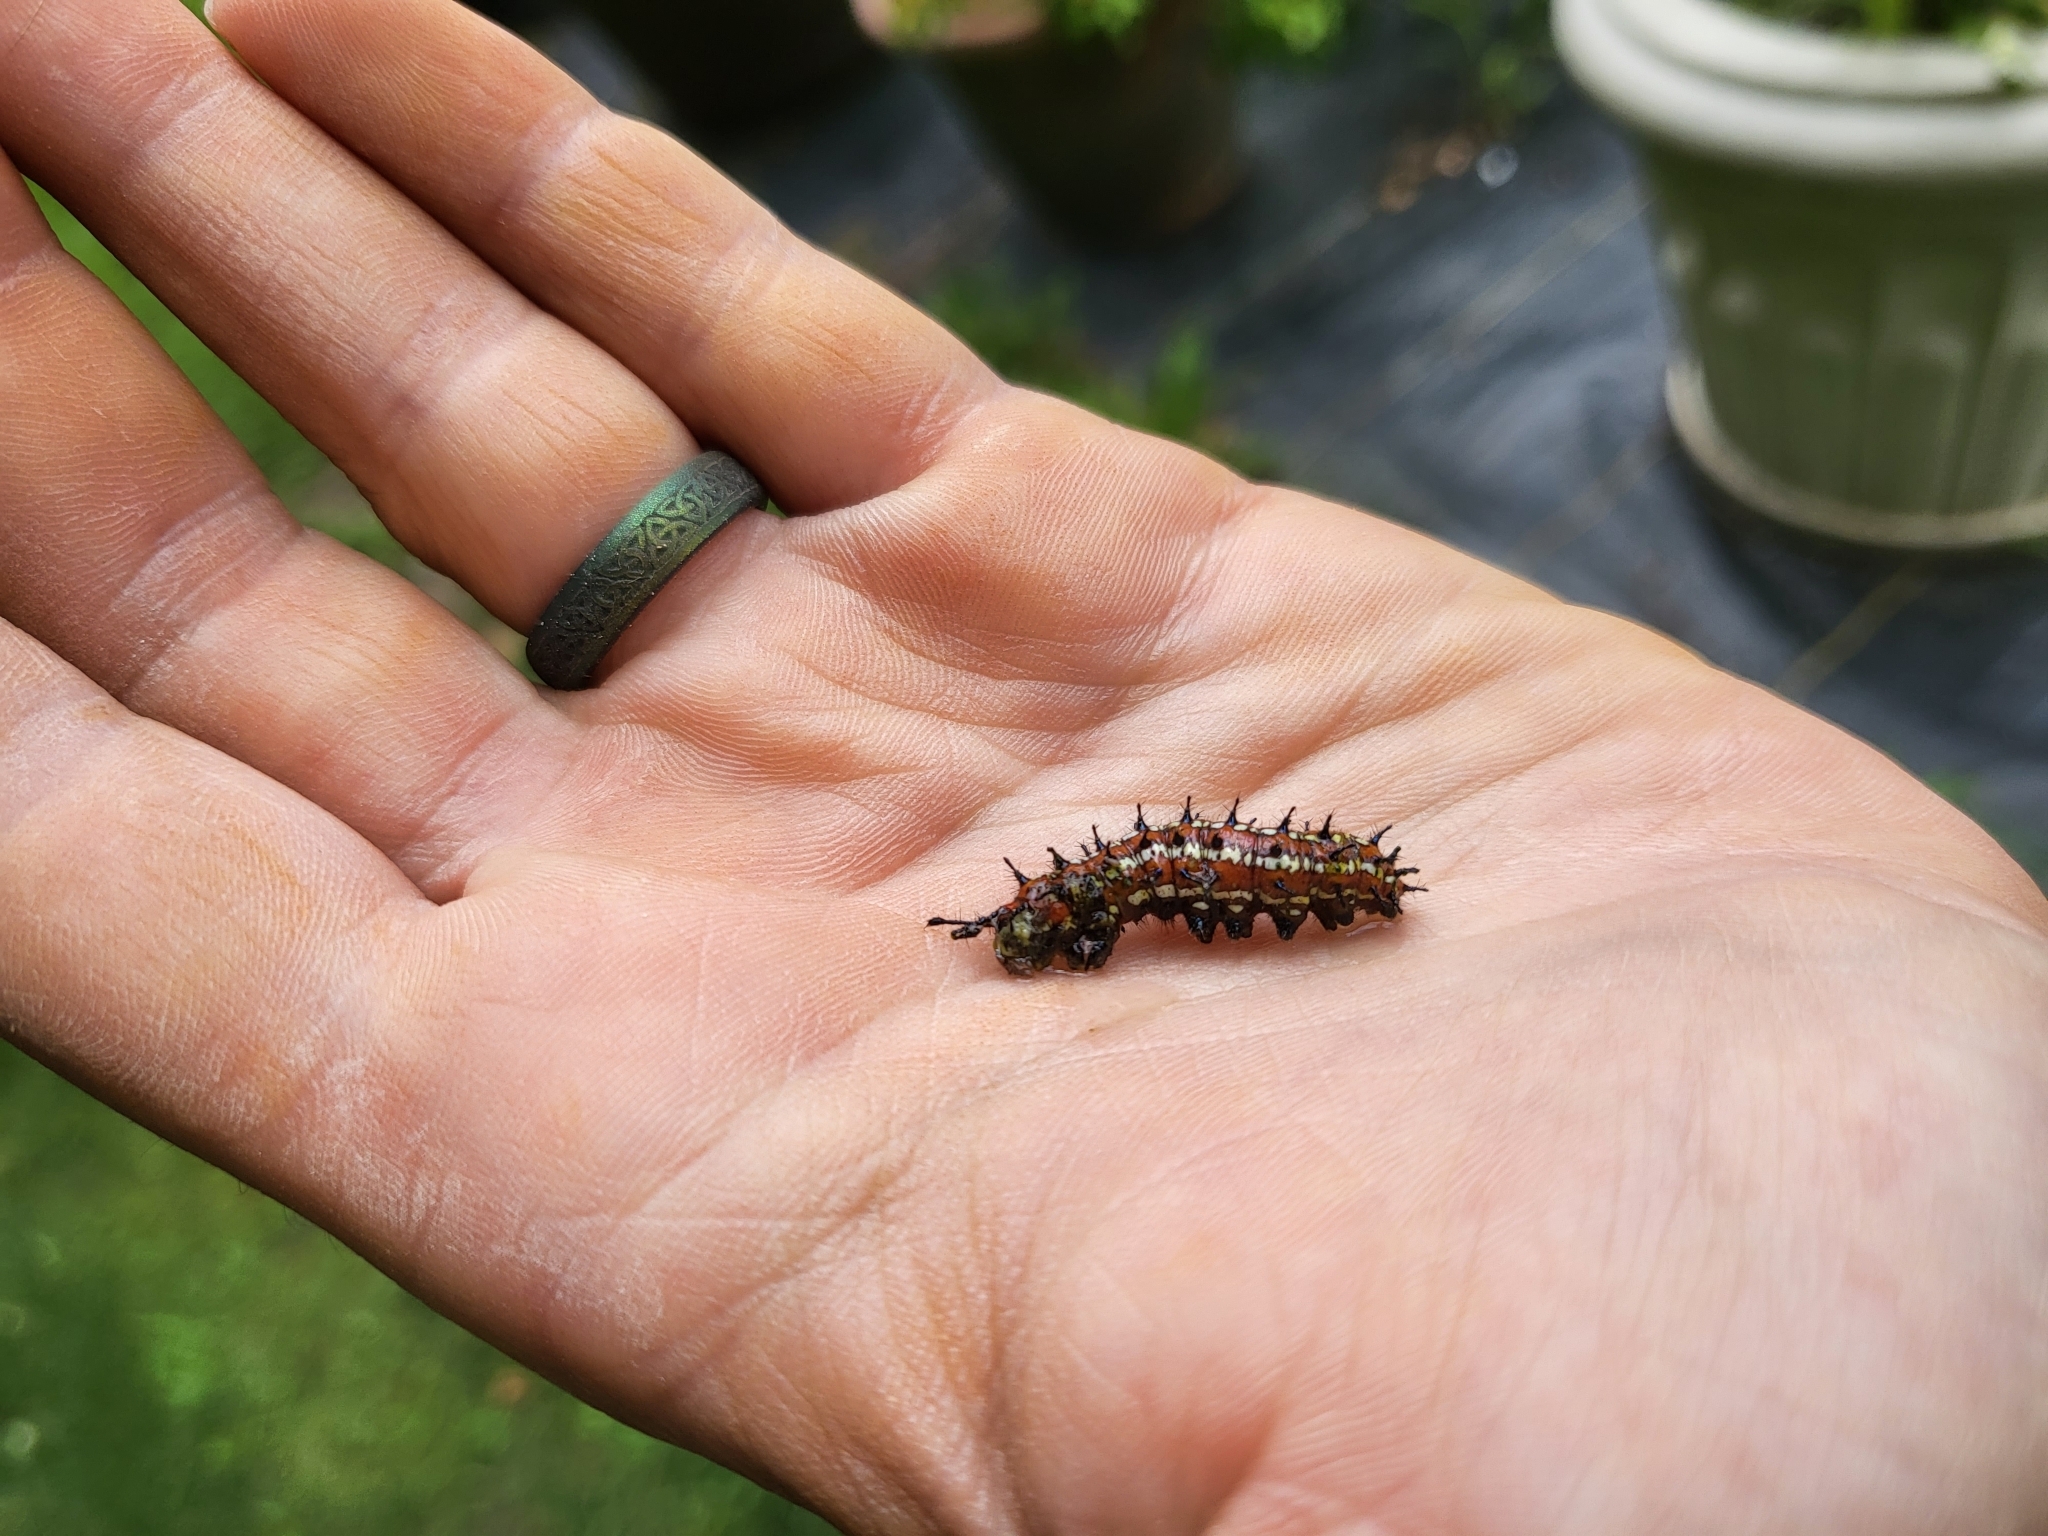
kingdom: Animalia
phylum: Arthropoda
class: Insecta
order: Lepidoptera
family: Nymphalidae
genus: Euptoieta
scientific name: Euptoieta claudia
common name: Variegated fritillary
